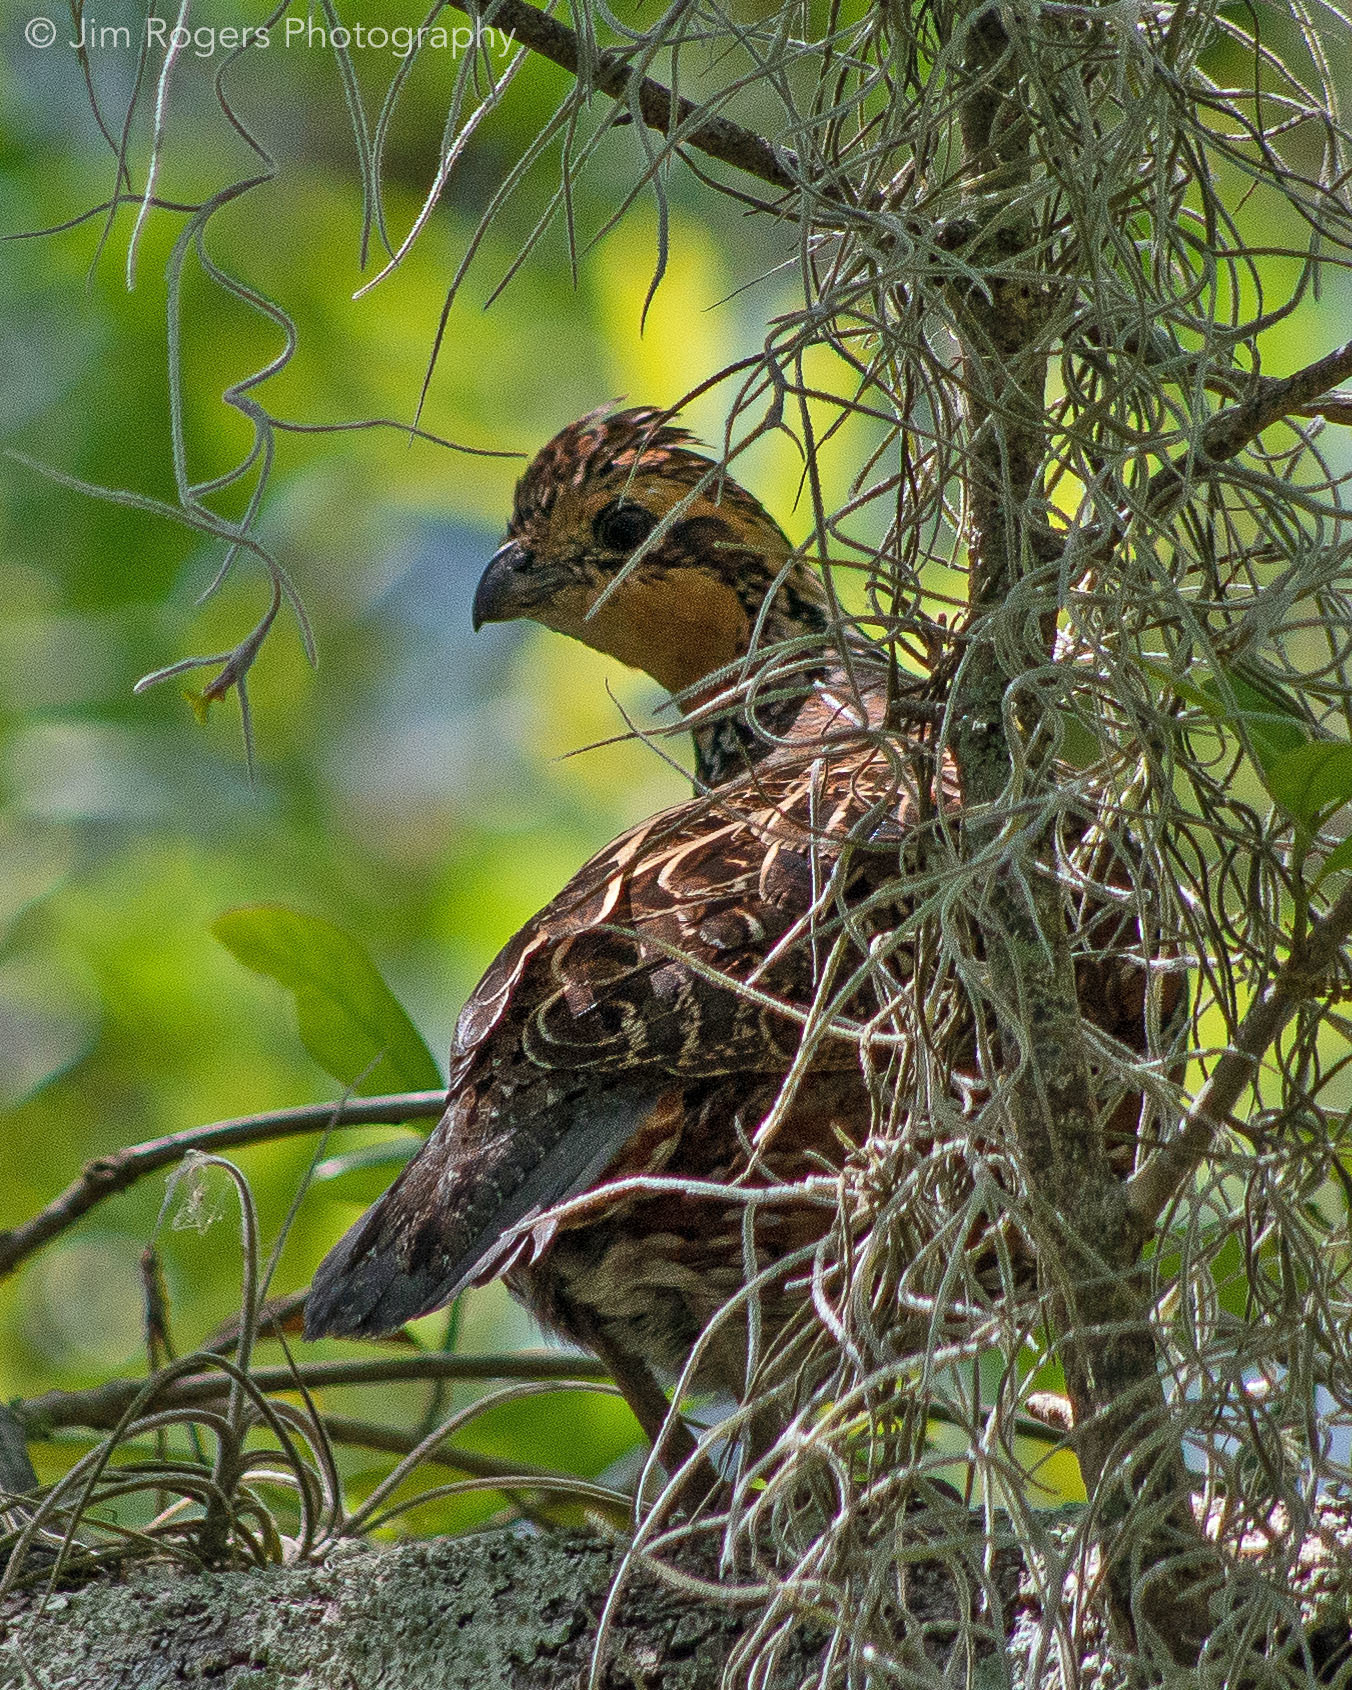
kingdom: Animalia
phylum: Chordata
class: Aves
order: Galliformes
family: Odontophoridae
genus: Colinus
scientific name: Colinus virginianus
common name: Northern bobwhite
